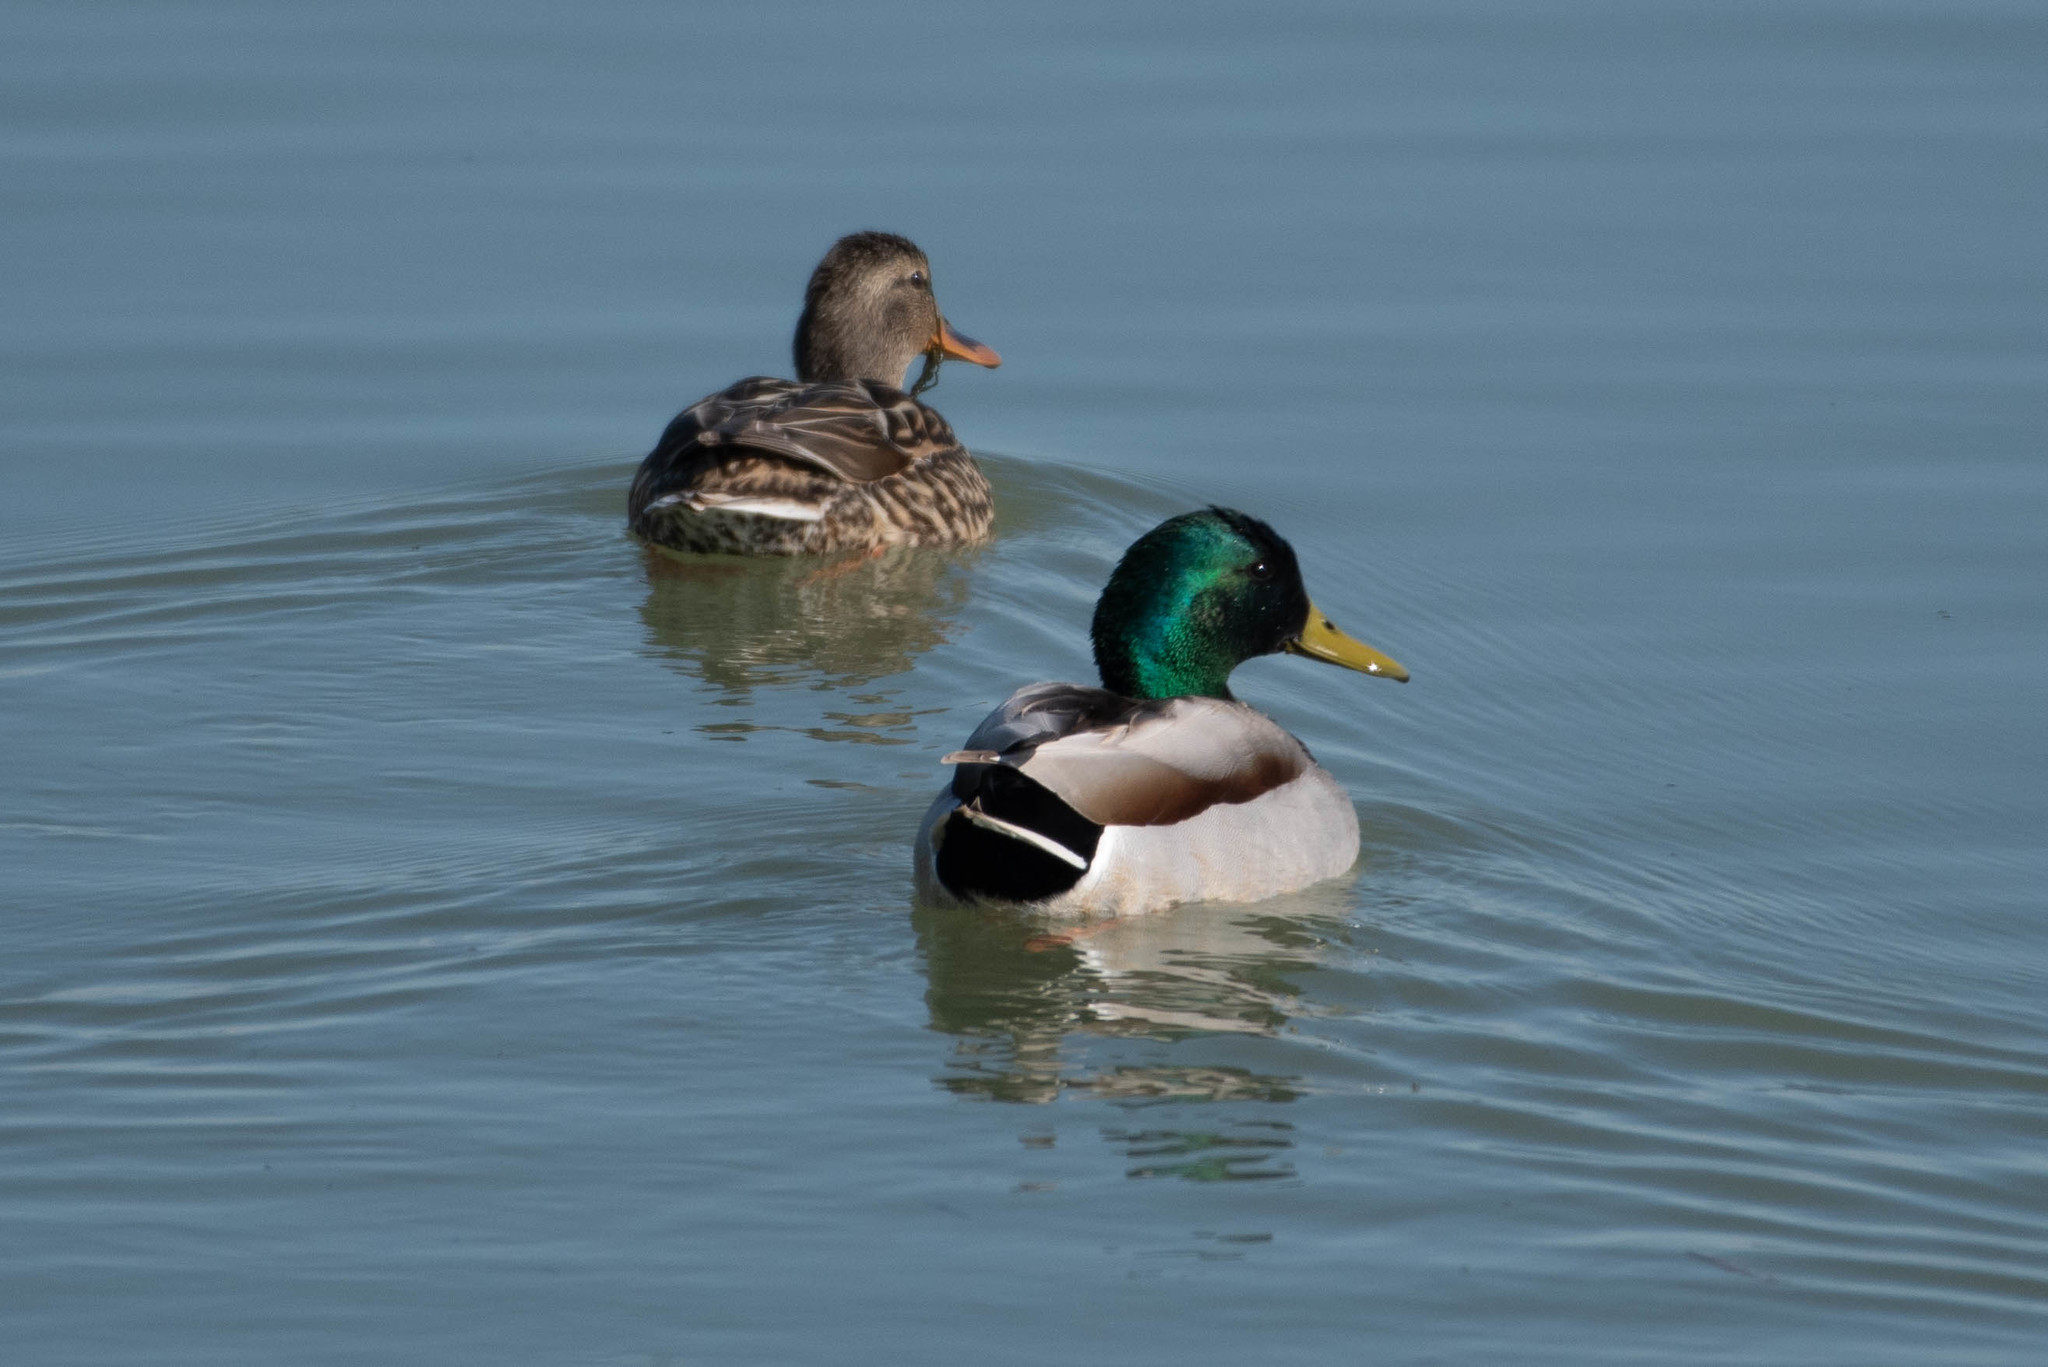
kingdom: Animalia
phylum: Chordata
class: Aves
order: Anseriformes
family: Anatidae
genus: Anas
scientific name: Anas platyrhynchos
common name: Mallard
